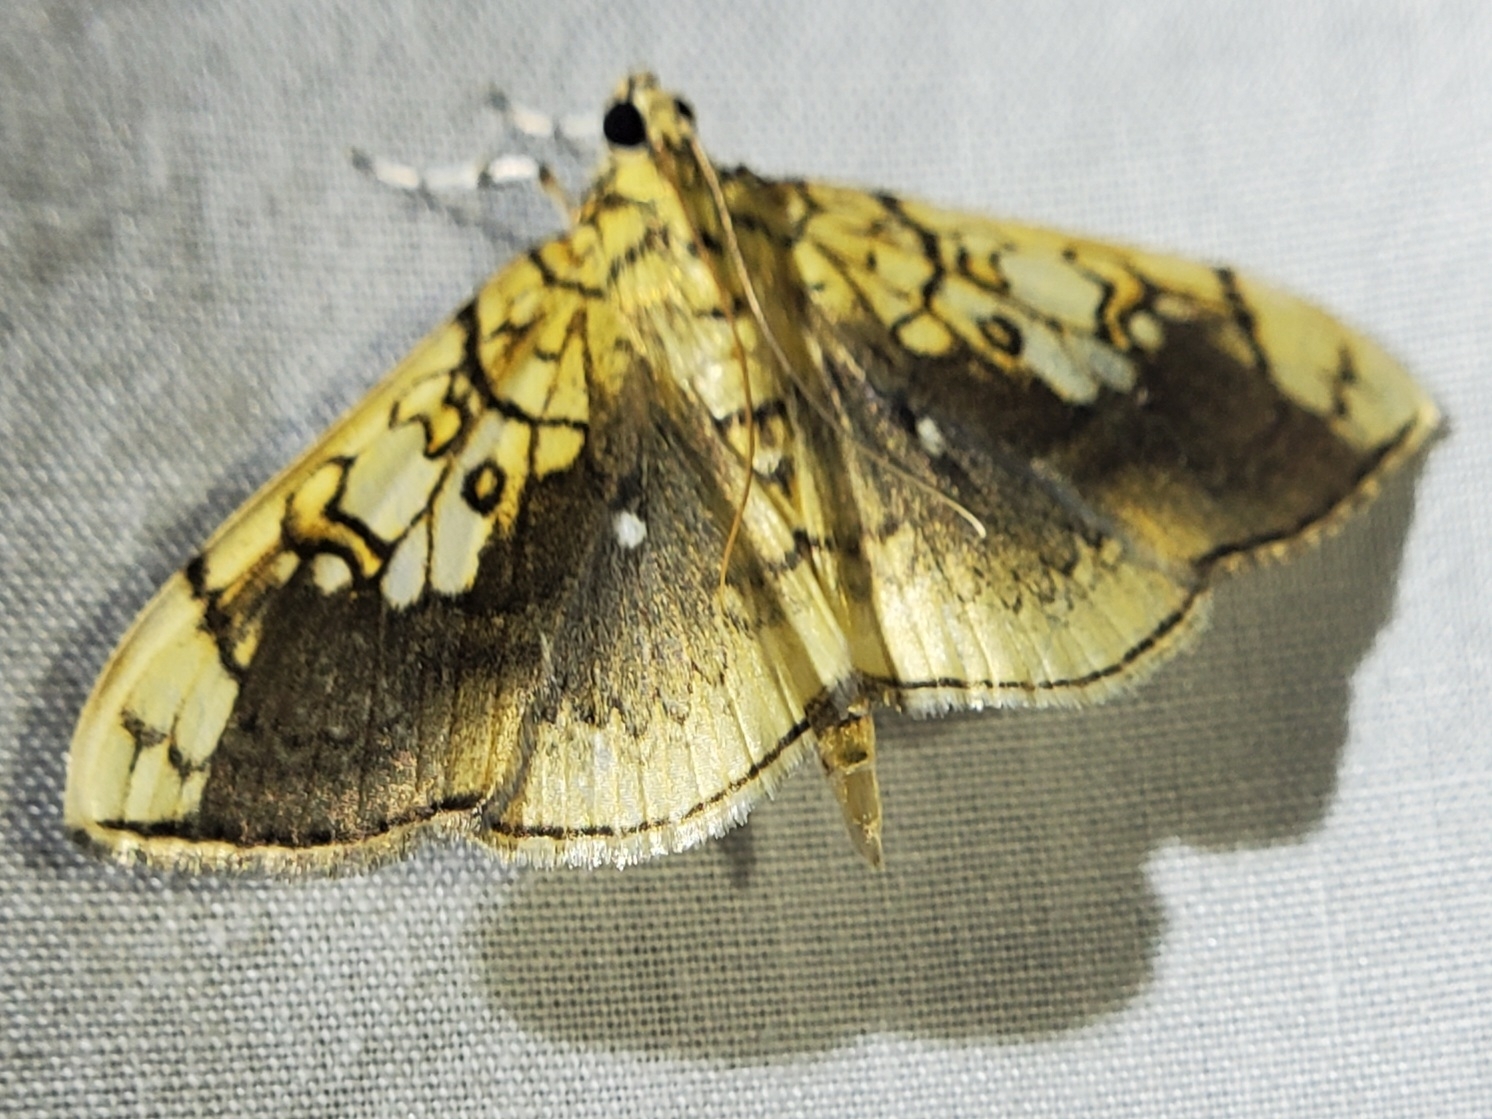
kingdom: Animalia
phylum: Arthropoda
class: Insecta
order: Lepidoptera
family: Crambidae
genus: Pantographa
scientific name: Pantographa limata
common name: Basswood leafroller moth
